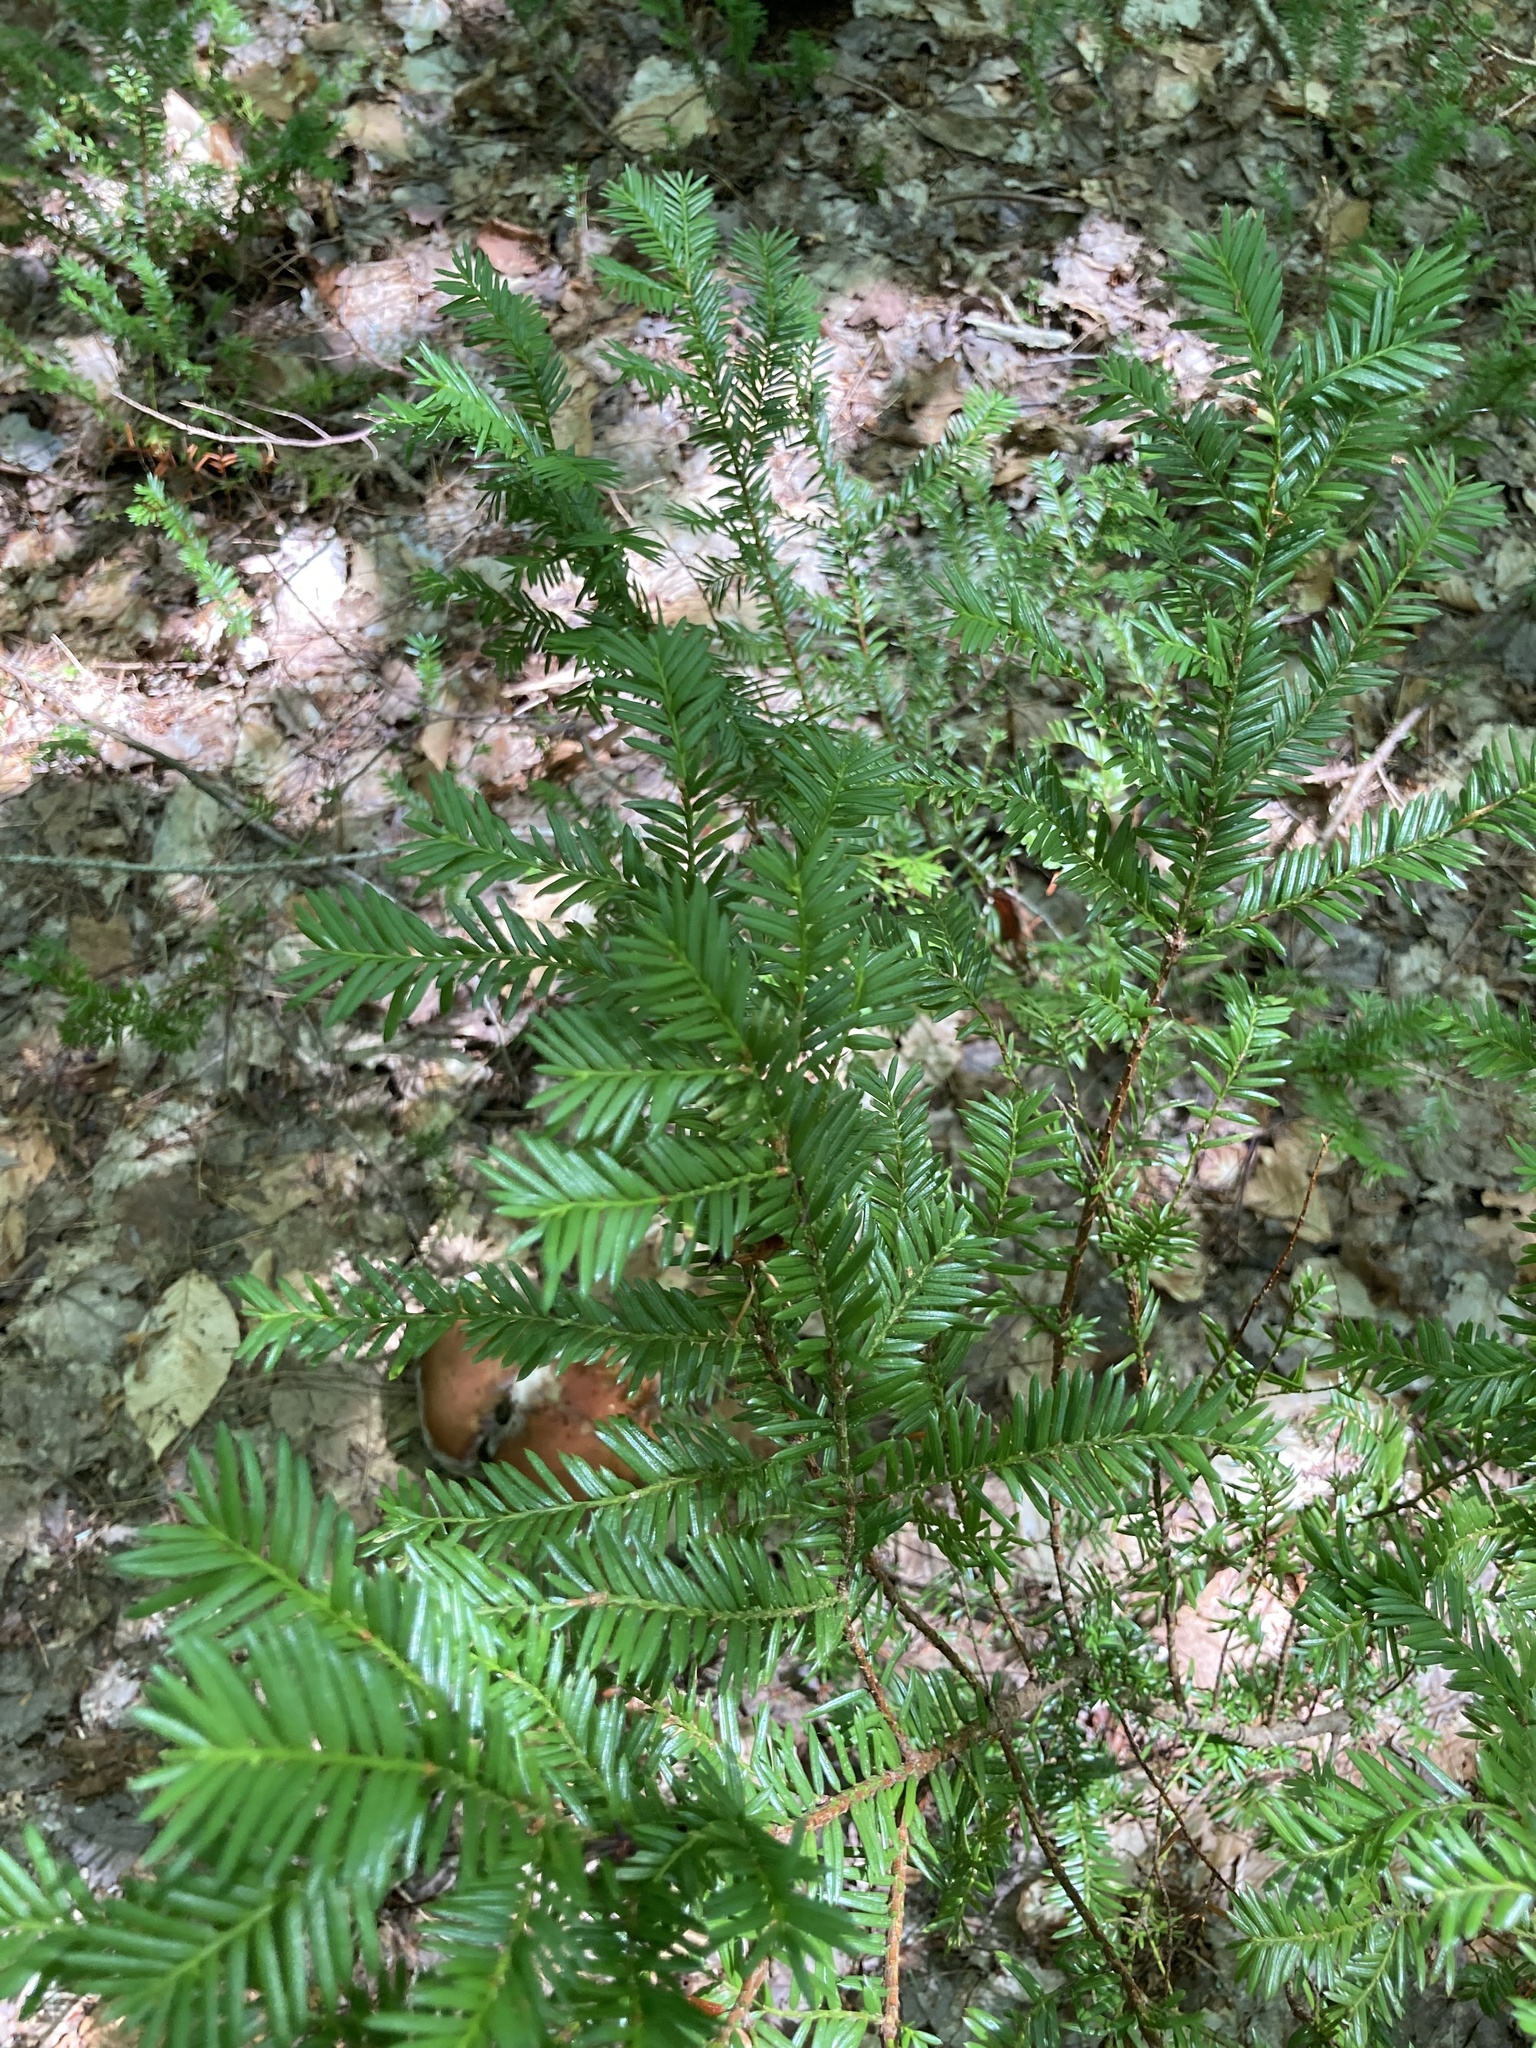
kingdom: Plantae
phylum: Tracheophyta
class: Pinopsida
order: Pinales
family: Taxaceae
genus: Taxus
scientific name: Taxus canadensis
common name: American yew
